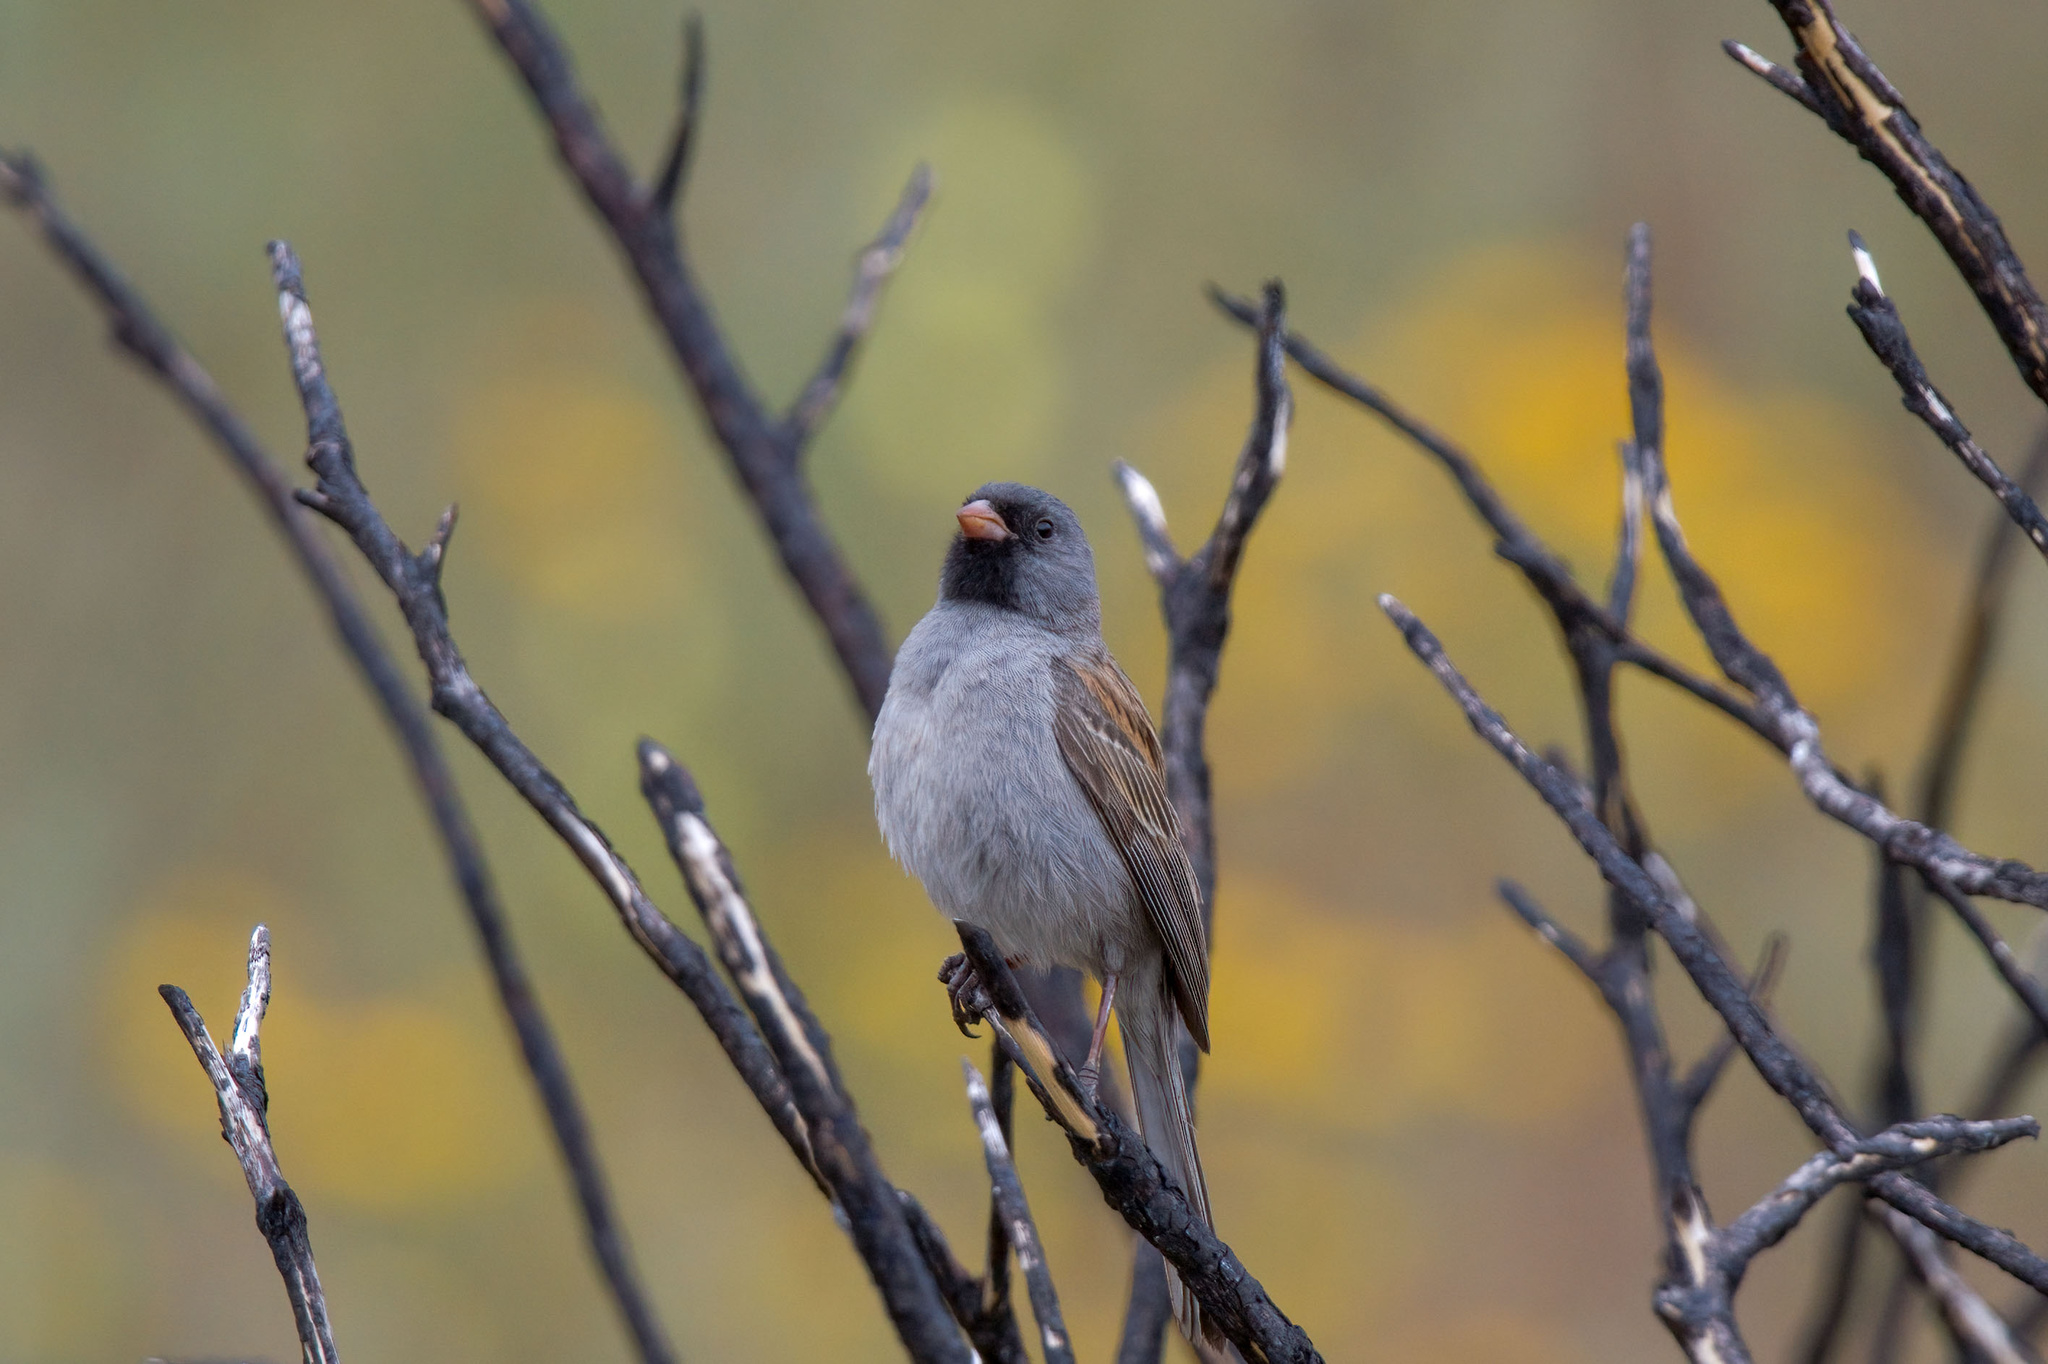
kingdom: Animalia
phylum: Chordata
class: Aves
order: Passeriformes
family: Passerellidae
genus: Spizella
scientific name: Spizella atrogularis
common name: Black-chinned sparrow
